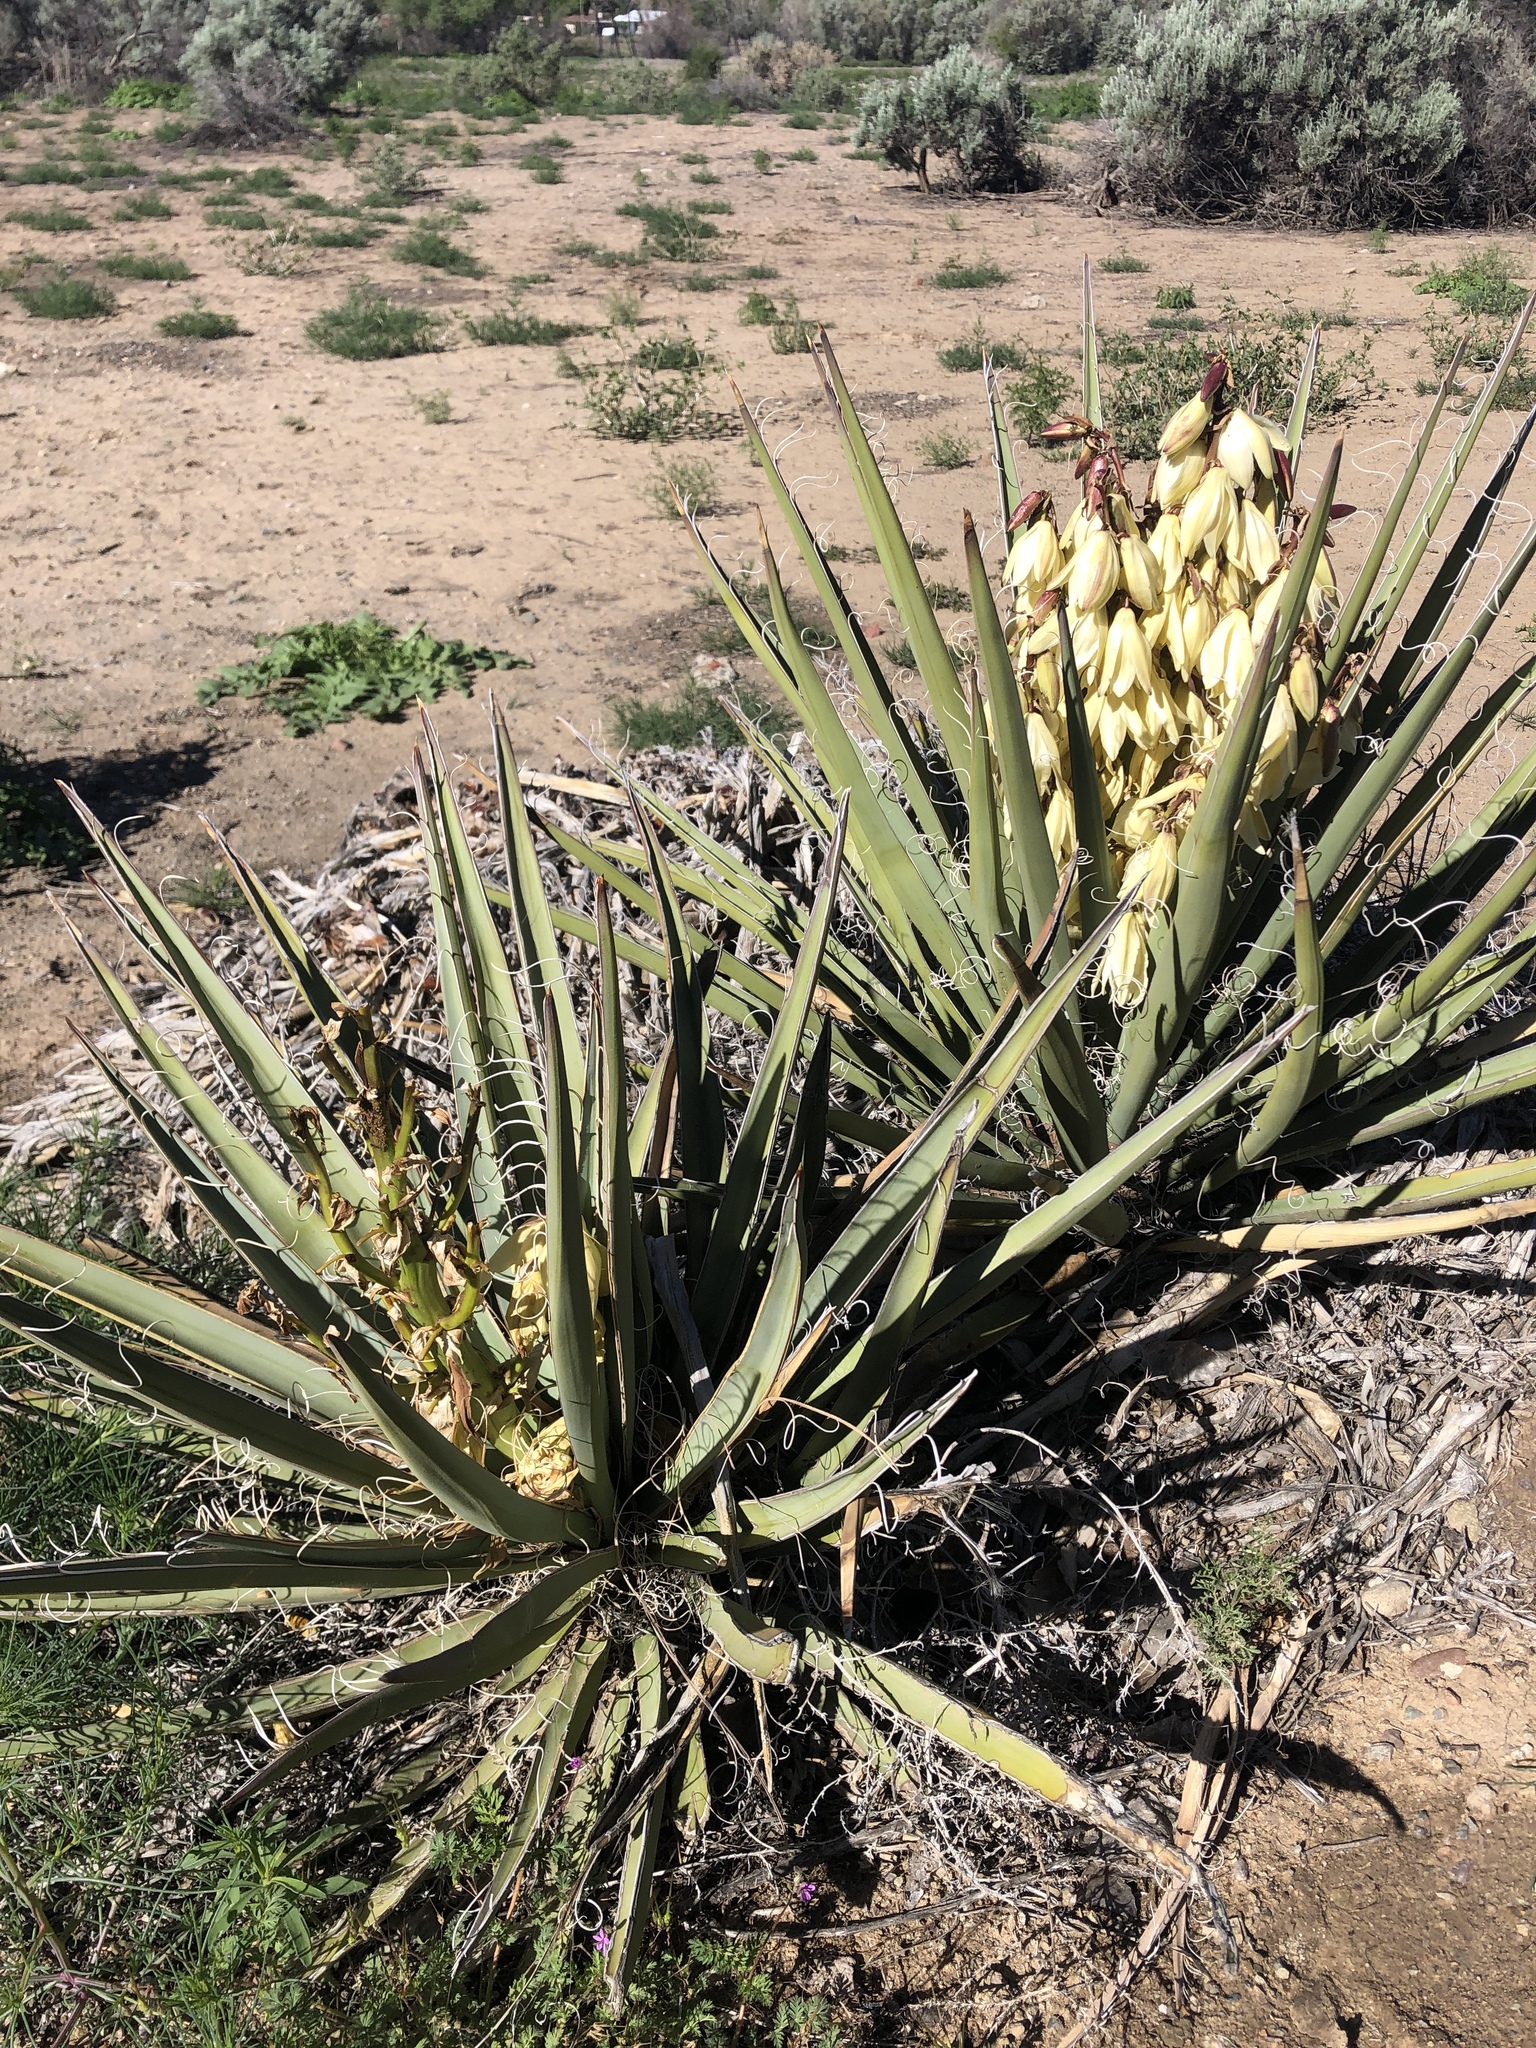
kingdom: Plantae
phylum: Tracheophyta
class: Liliopsida
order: Asparagales
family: Asparagaceae
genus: Yucca
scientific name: Yucca baccata
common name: Banana yucca
